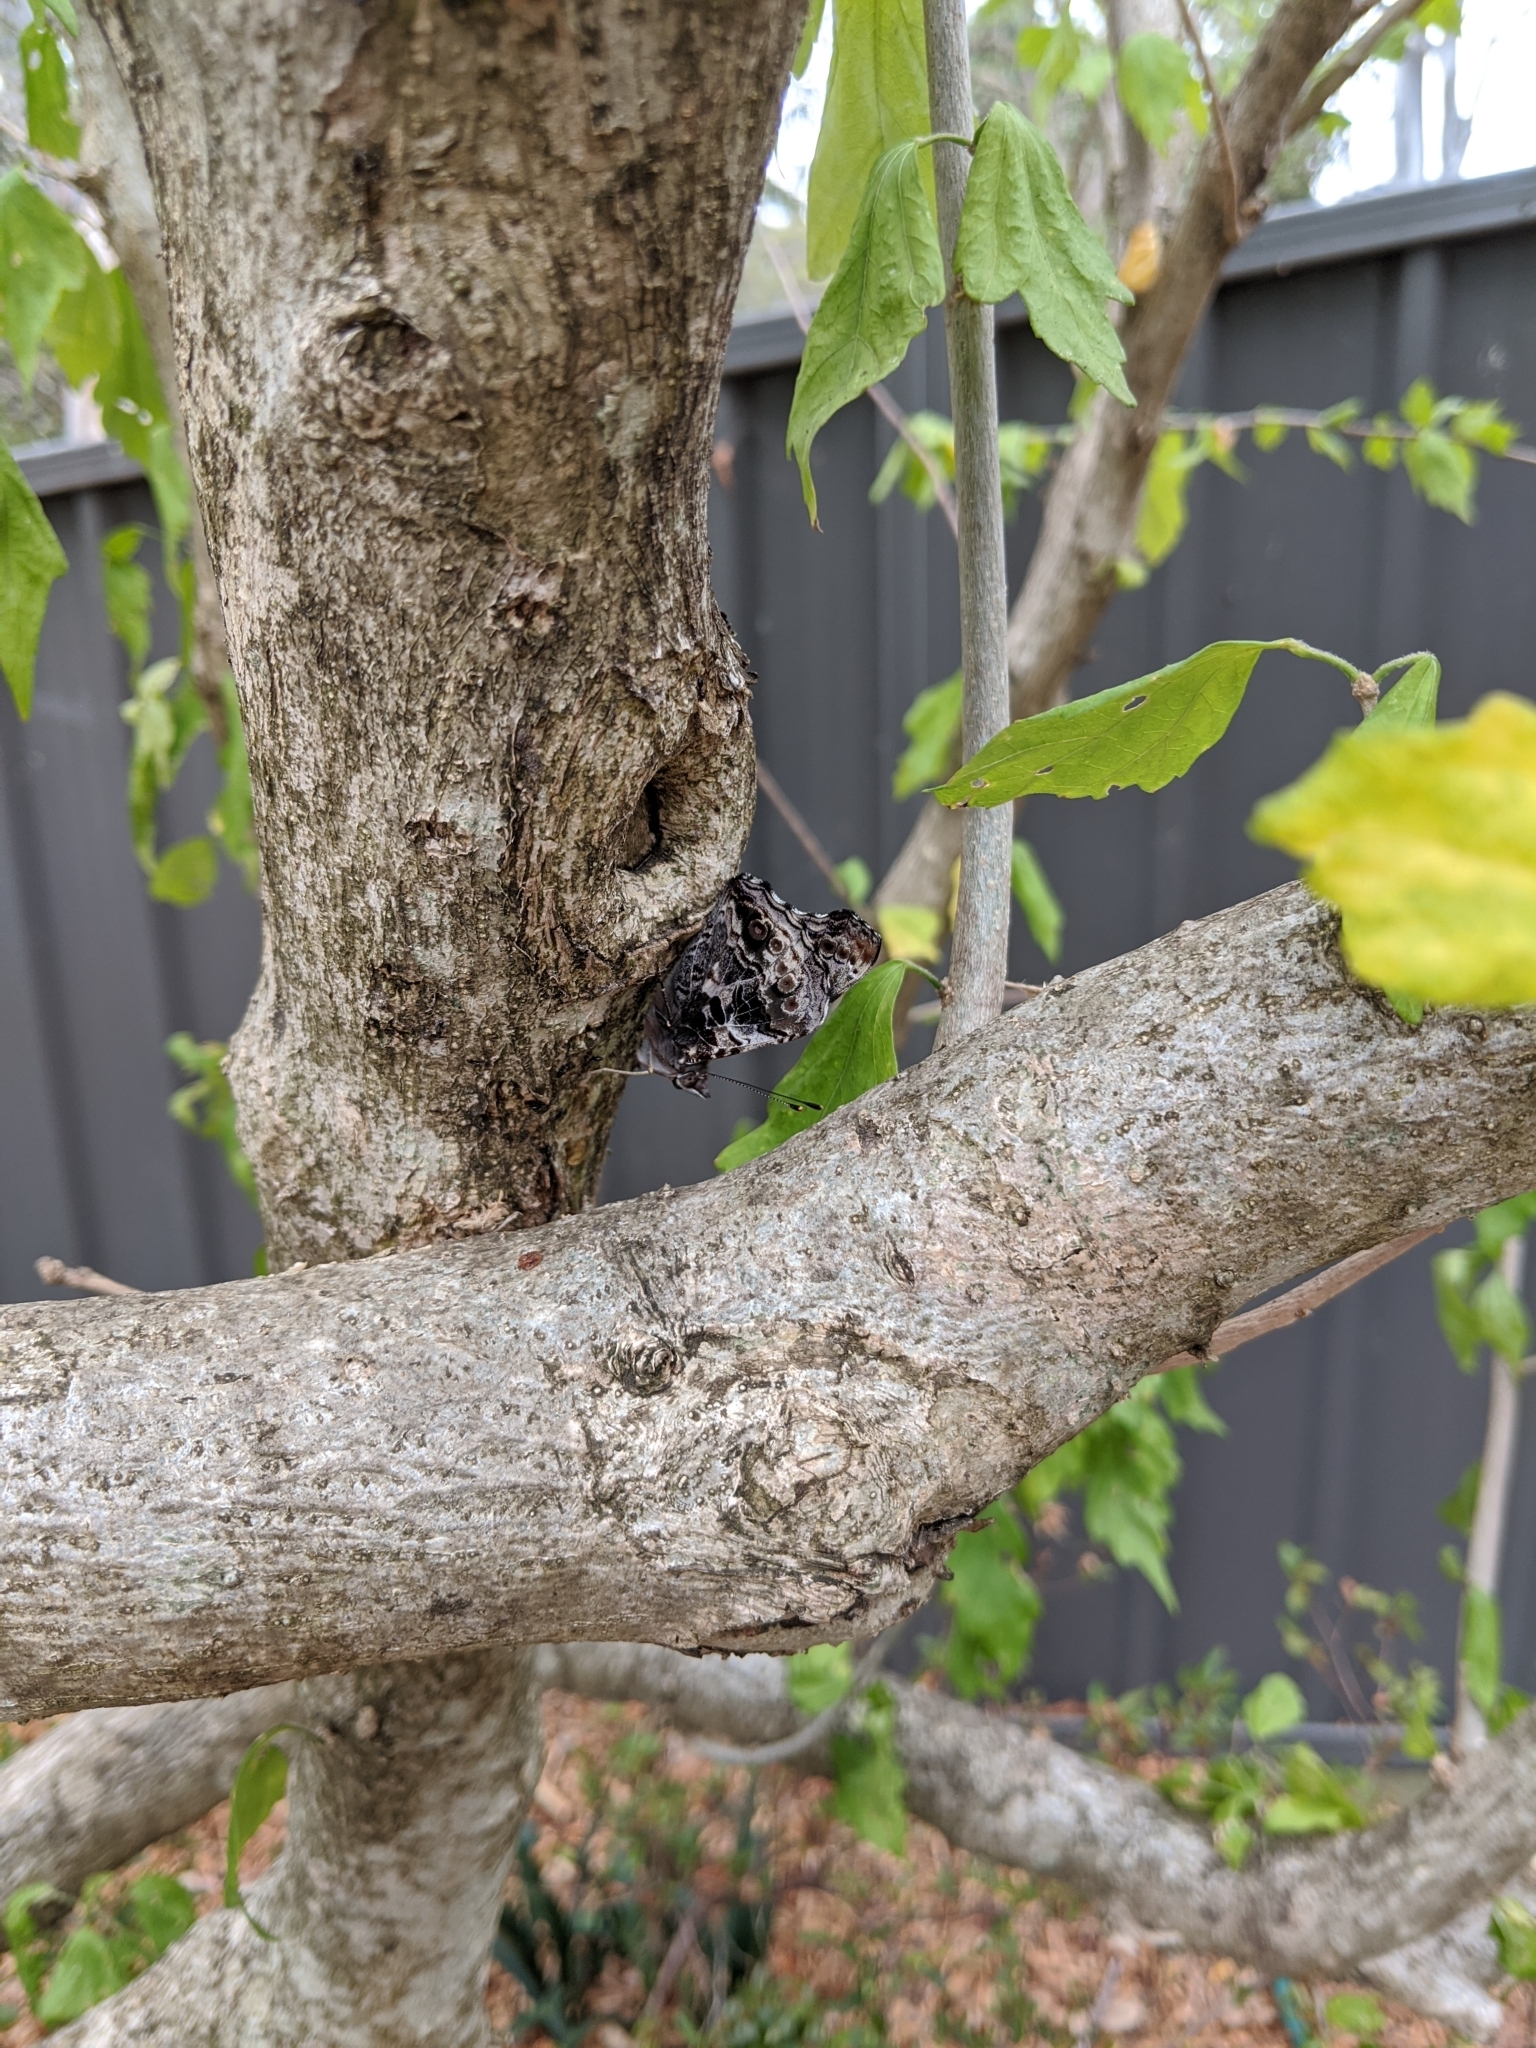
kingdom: Animalia
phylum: Arthropoda
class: Insecta
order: Lepidoptera
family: Nymphalidae
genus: Vanessa
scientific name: Vanessa itea
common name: Yellow admiral
